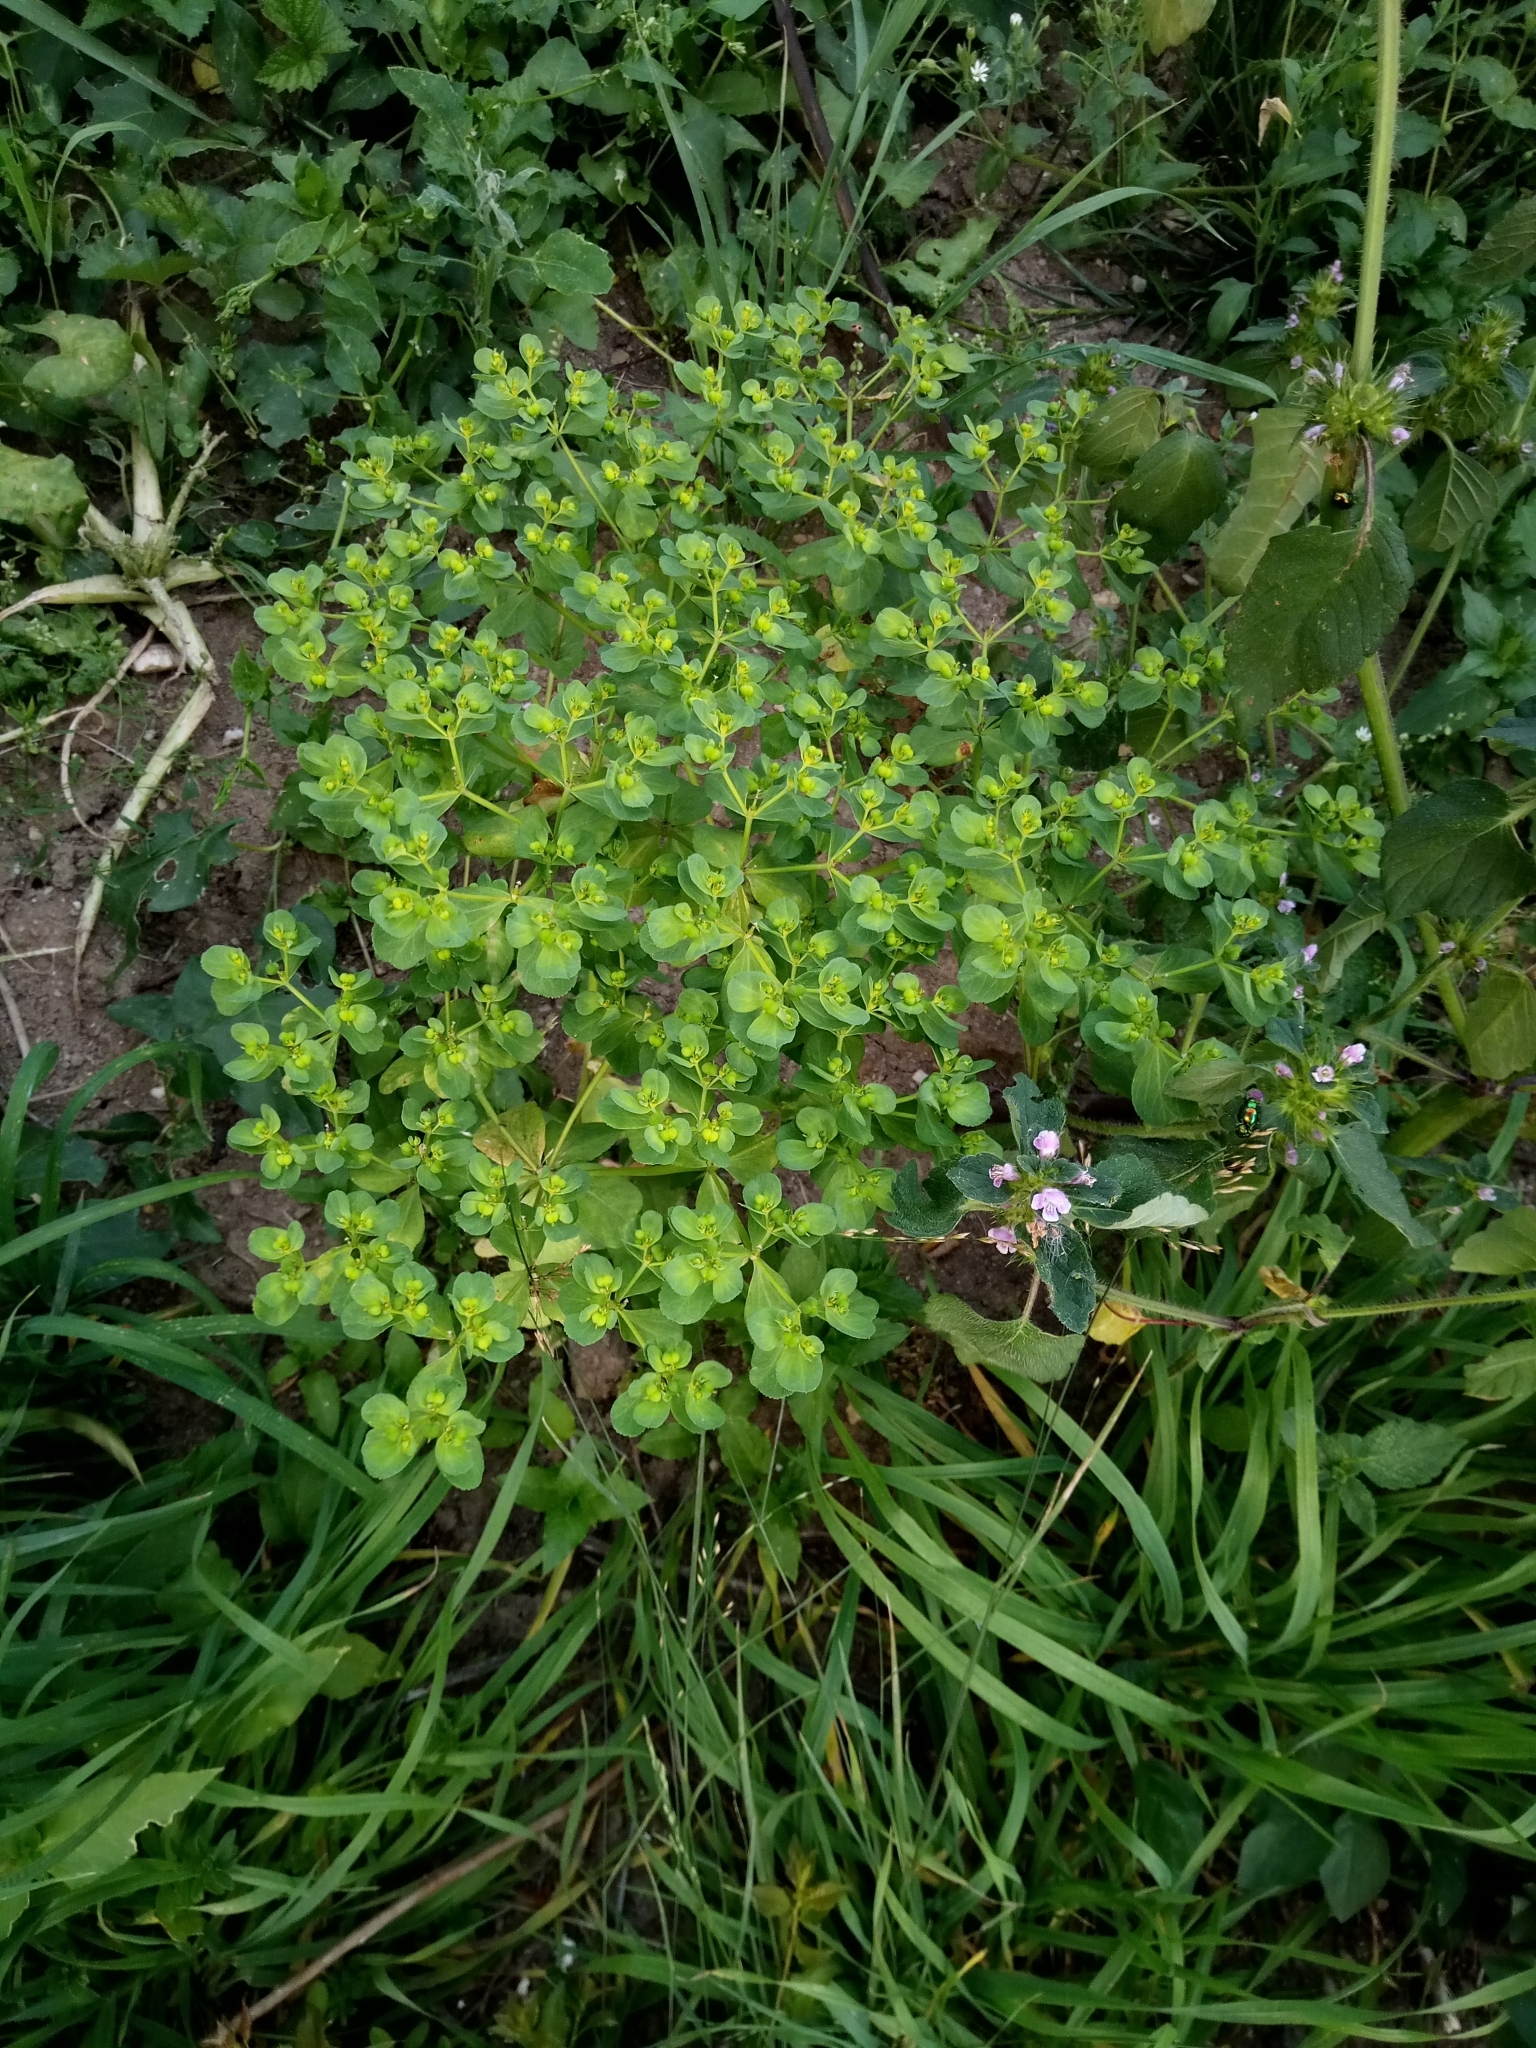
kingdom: Plantae
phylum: Tracheophyta
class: Magnoliopsida
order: Malpighiales
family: Euphorbiaceae
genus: Euphorbia
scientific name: Euphorbia helioscopia
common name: Sun spurge
